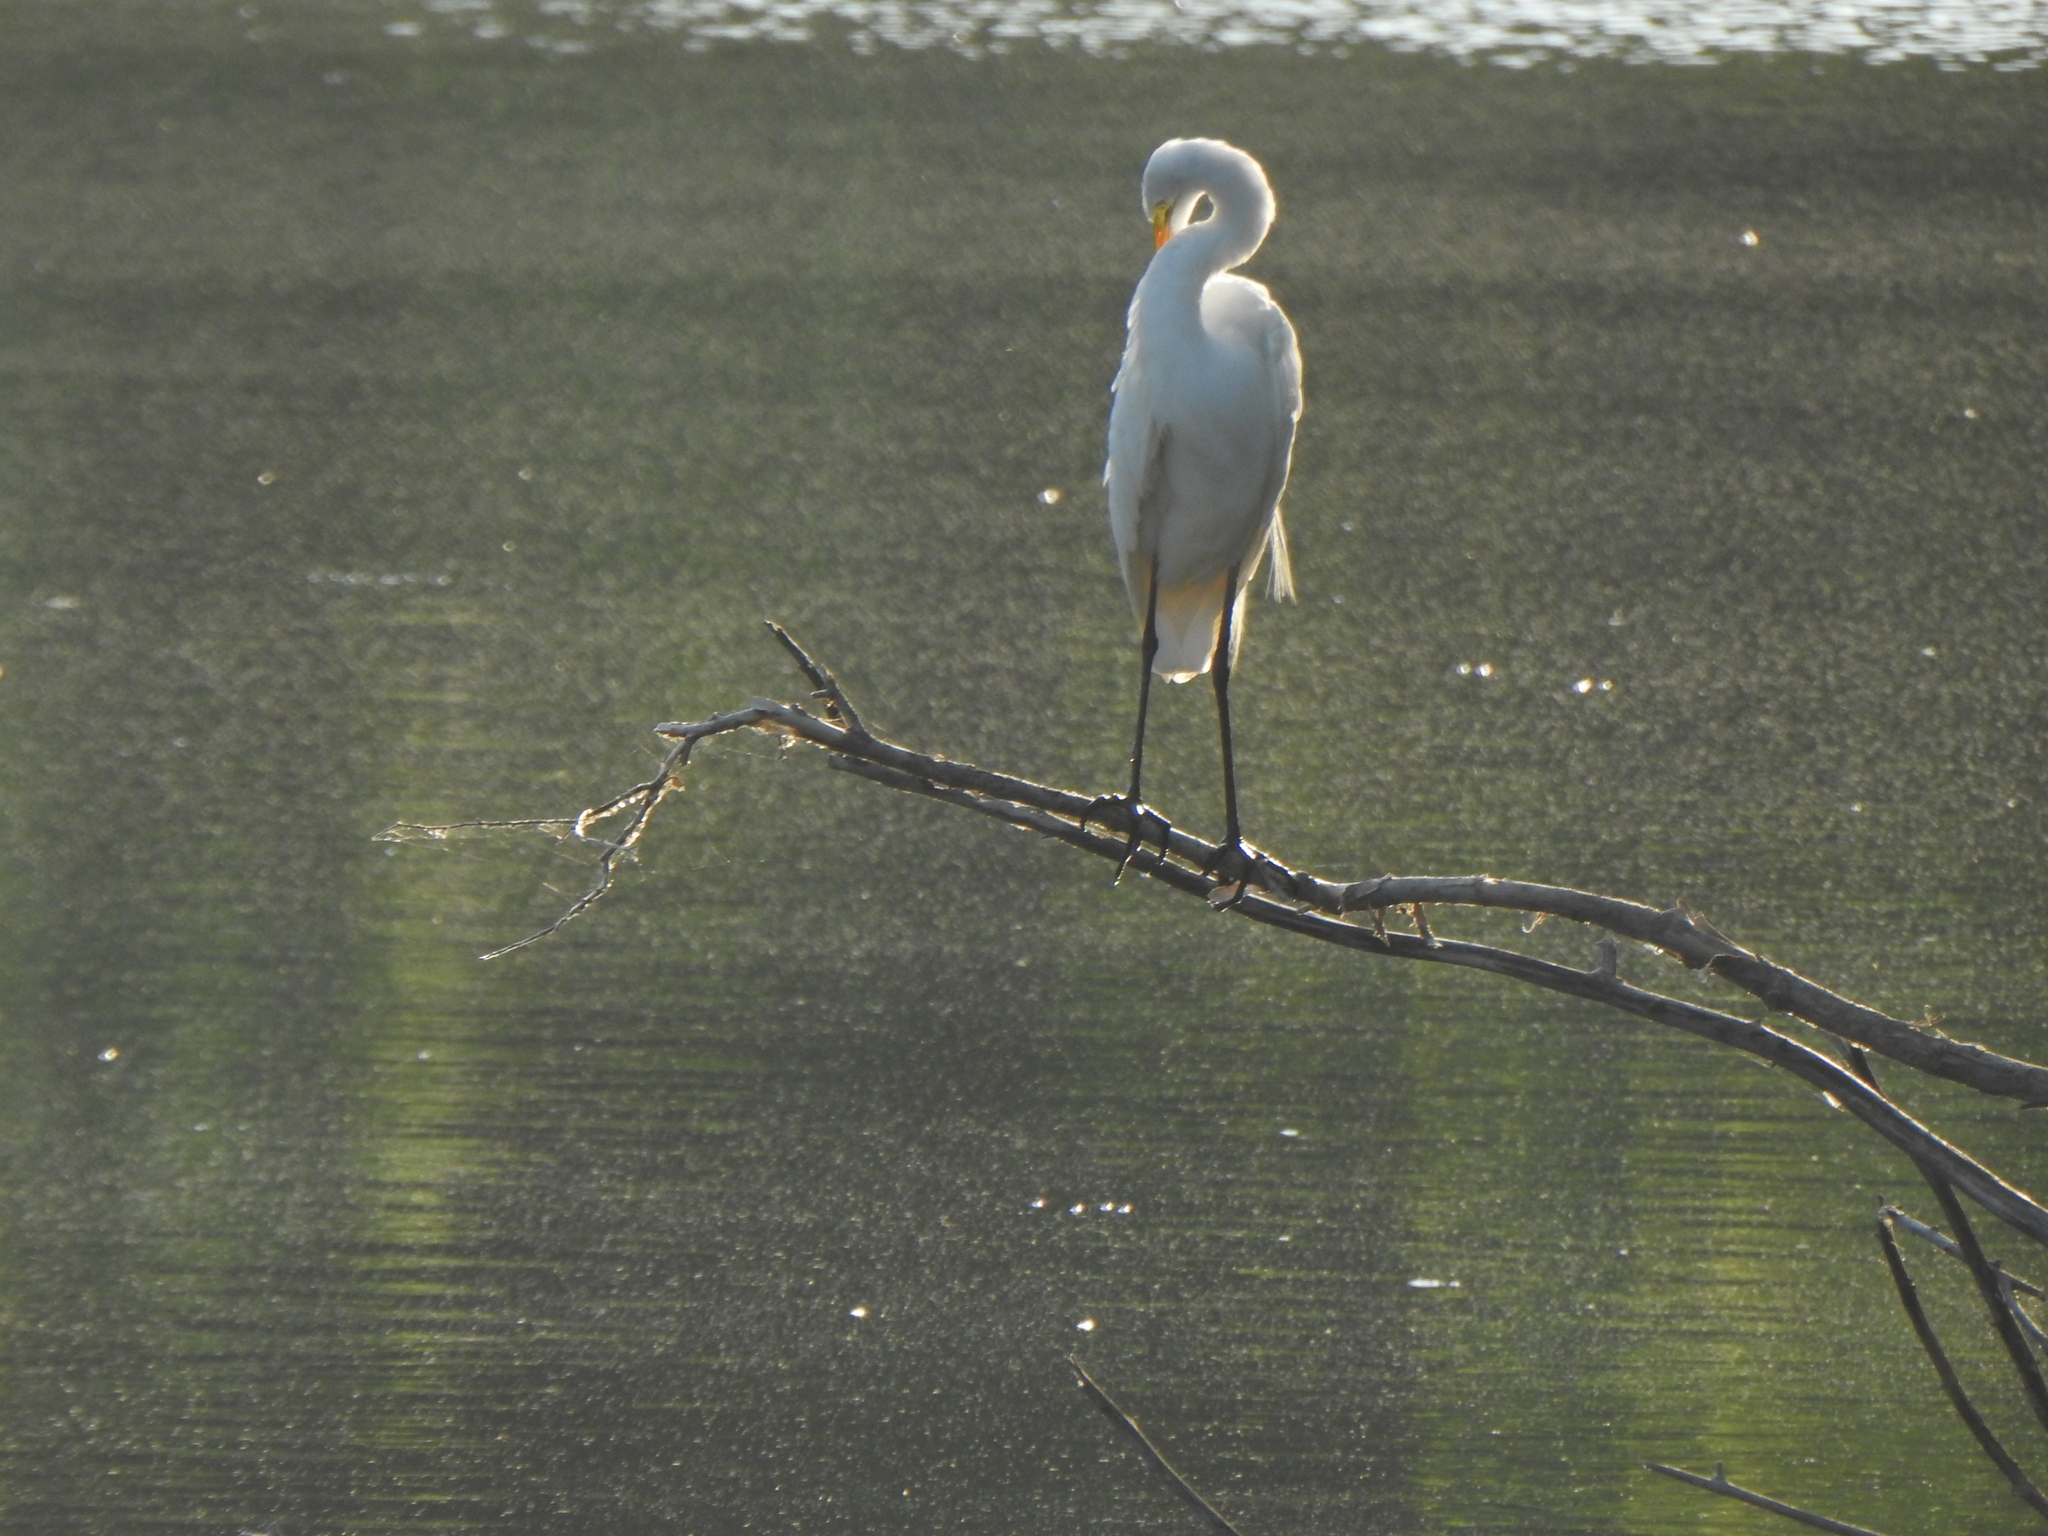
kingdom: Animalia
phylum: Chordata
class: Aves
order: Pelecaniformes
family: Ardeidae
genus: Ardea
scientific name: Ardea alba
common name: Great egret
